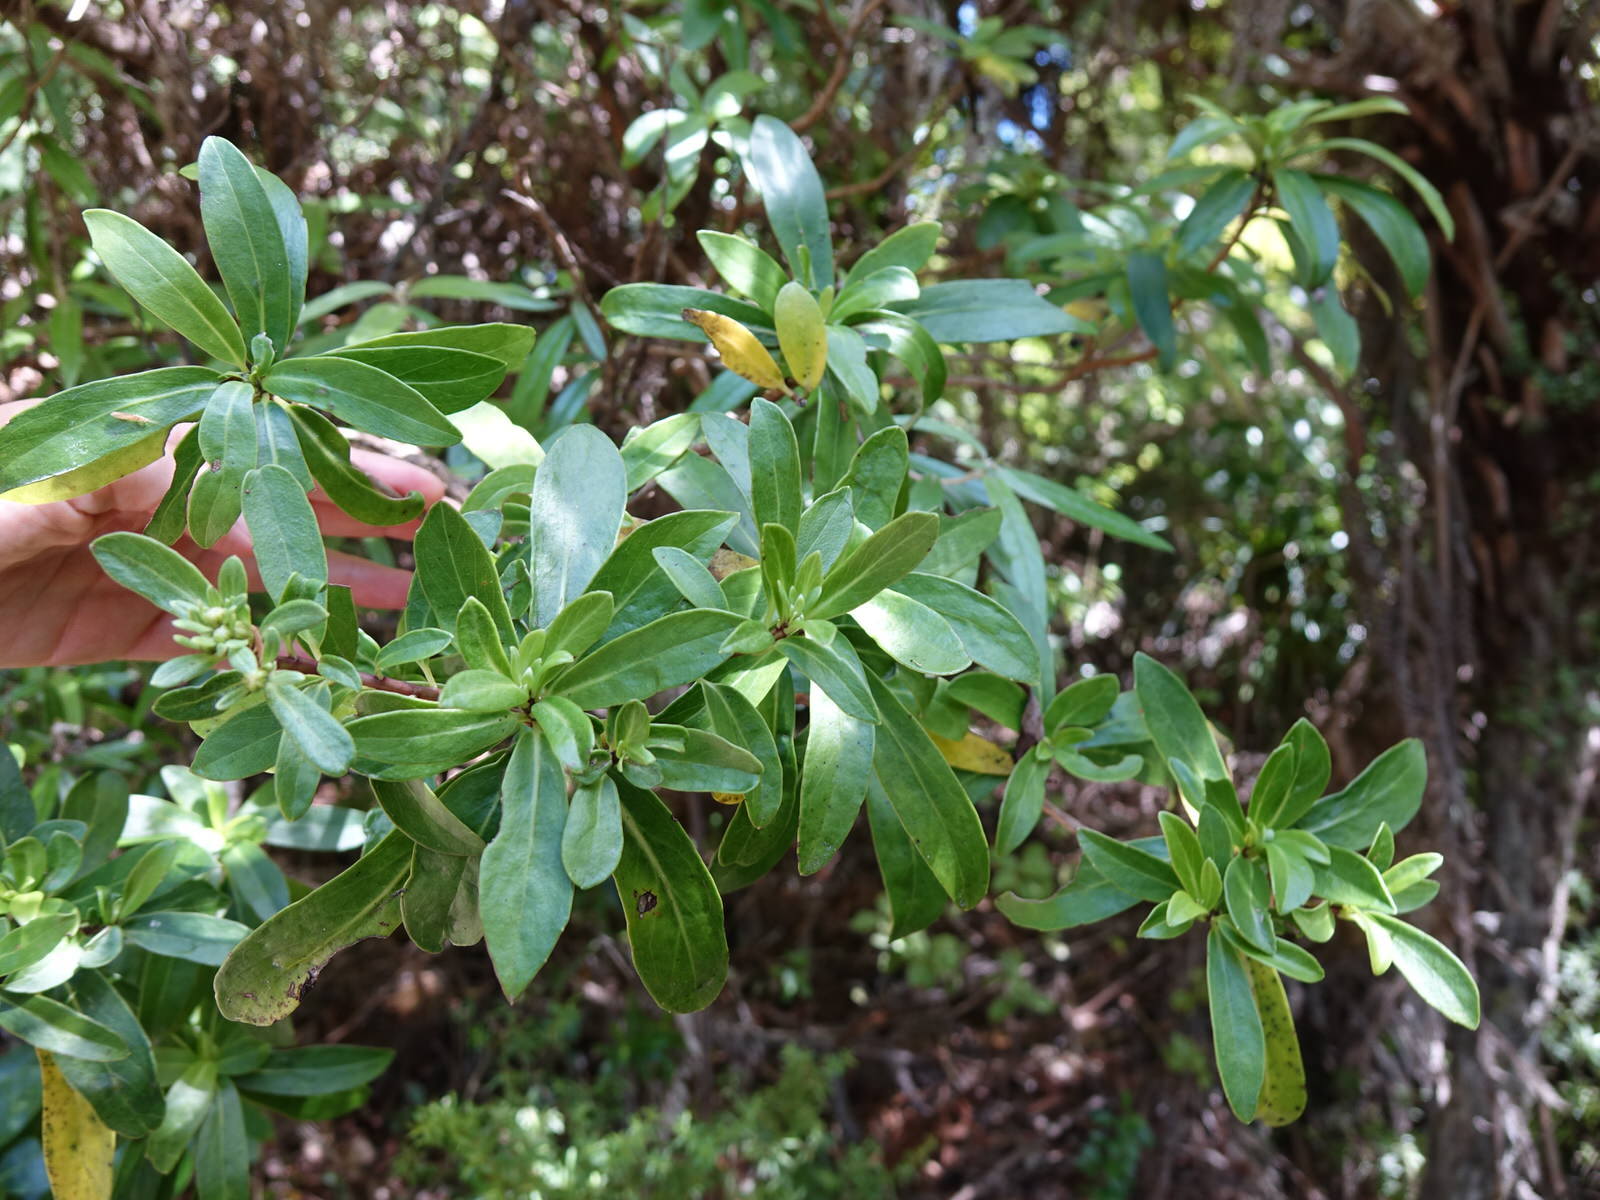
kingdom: Plantae
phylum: Tracheophyta
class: Magnoliopsida
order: Asterales
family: Asteraceae
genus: Brachyglottis
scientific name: Brachyglottis kirkii
